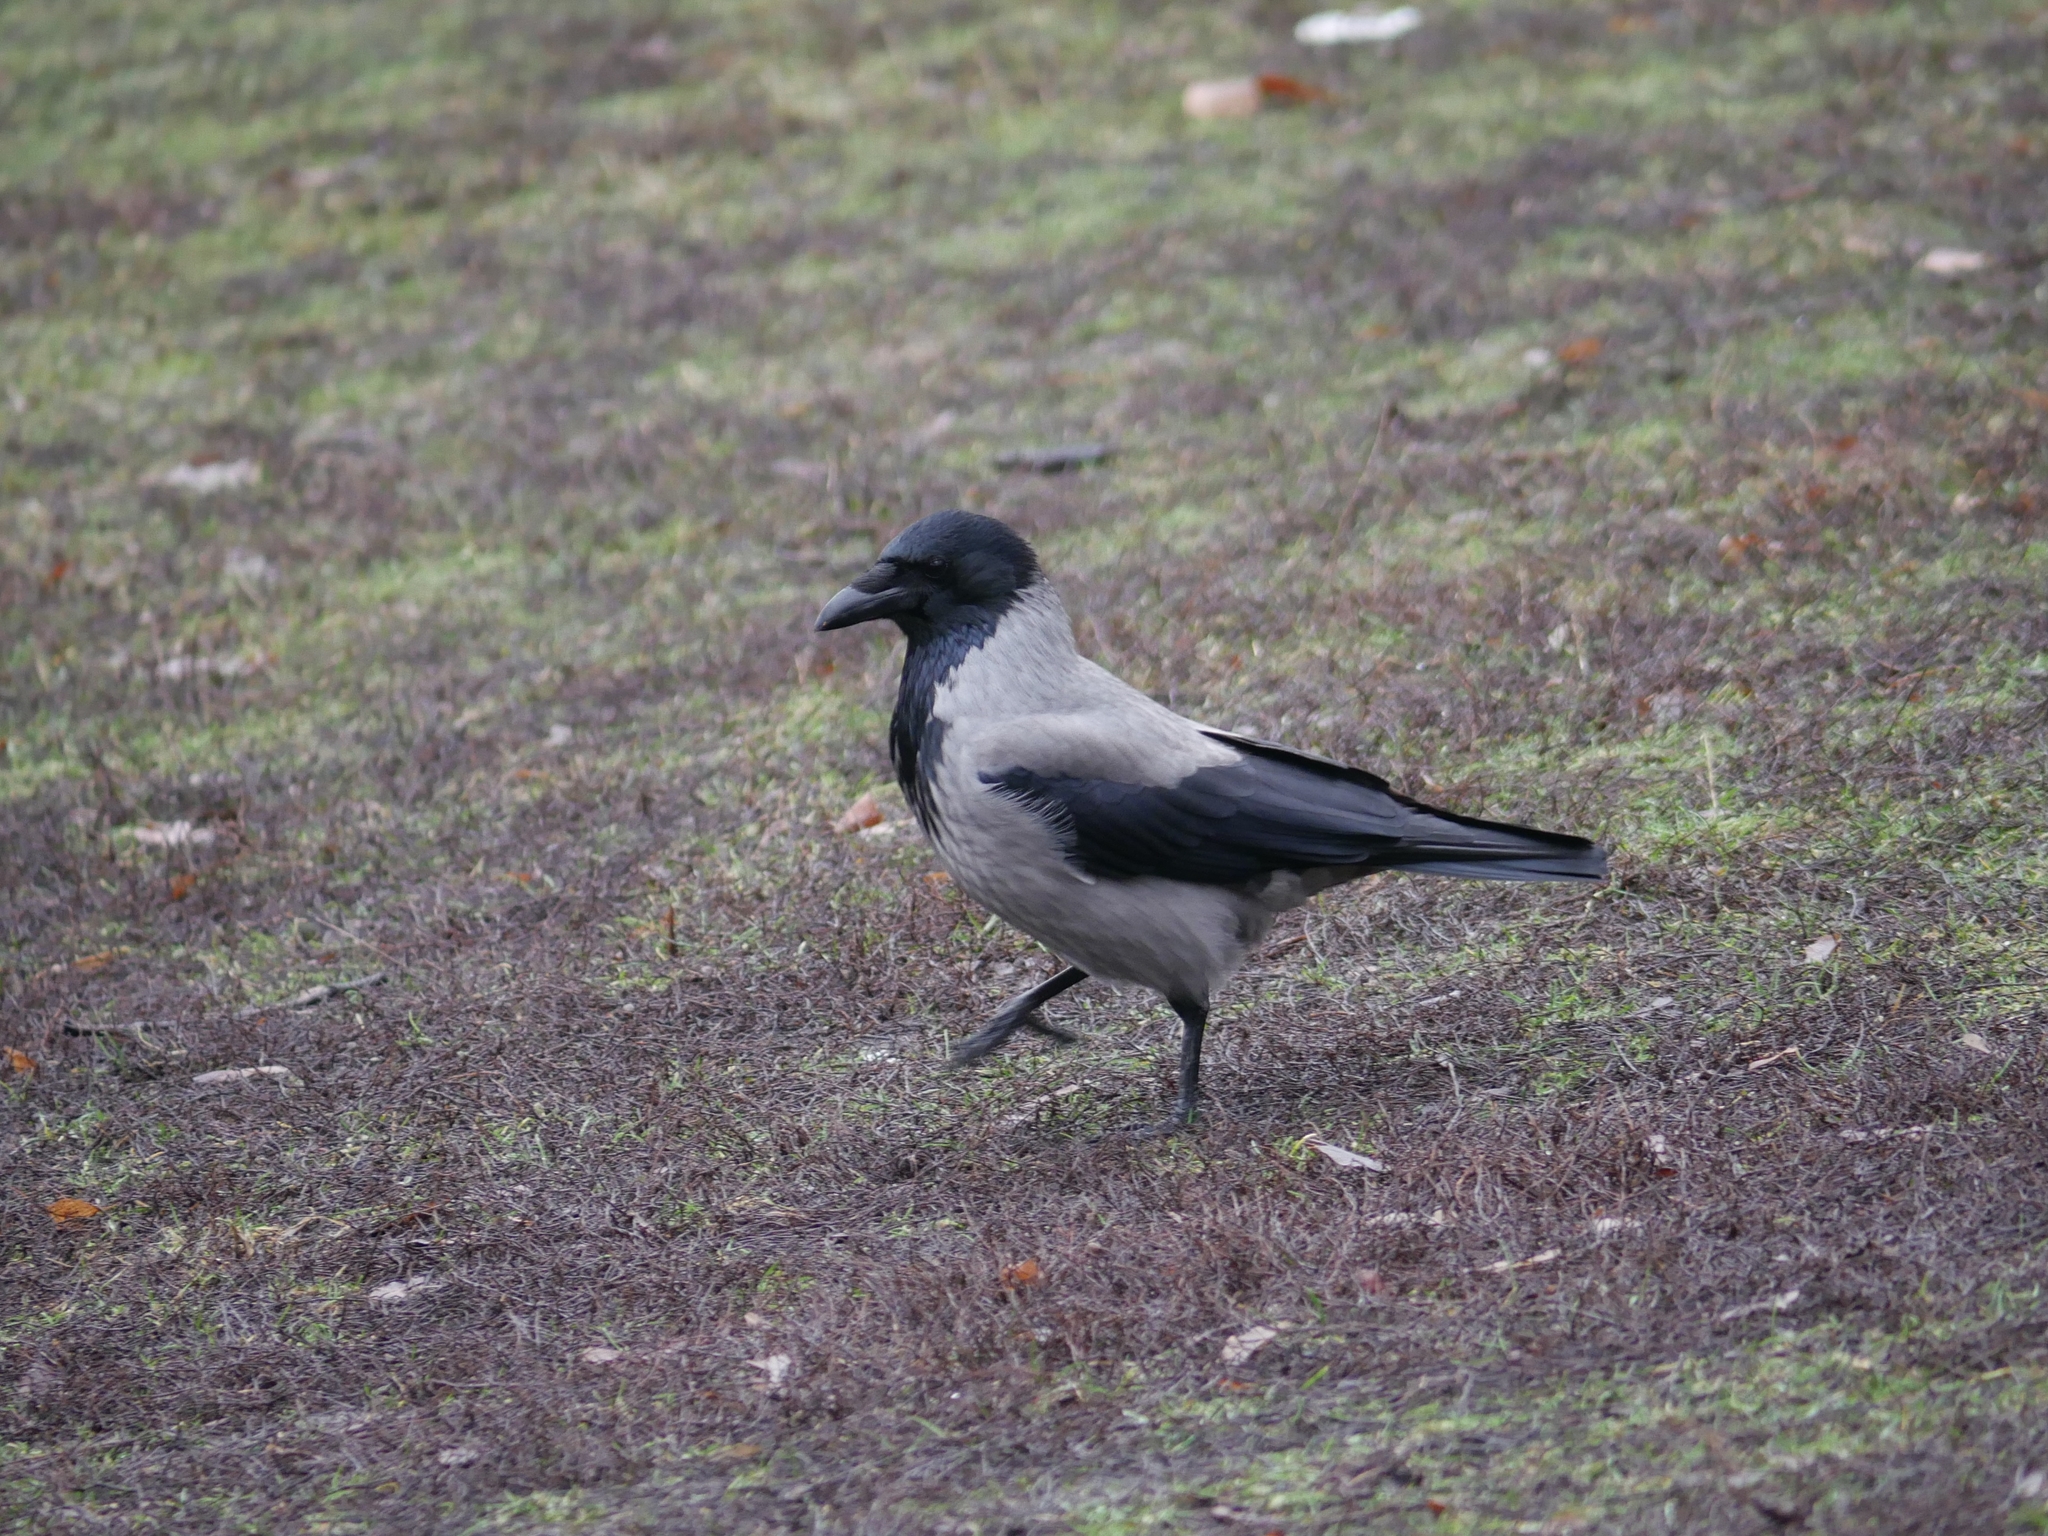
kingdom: Animalia
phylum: Chordata
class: Aves
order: Passeriformes
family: Corvidae
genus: Corvus
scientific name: Corvus cornix
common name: Hooded crow
